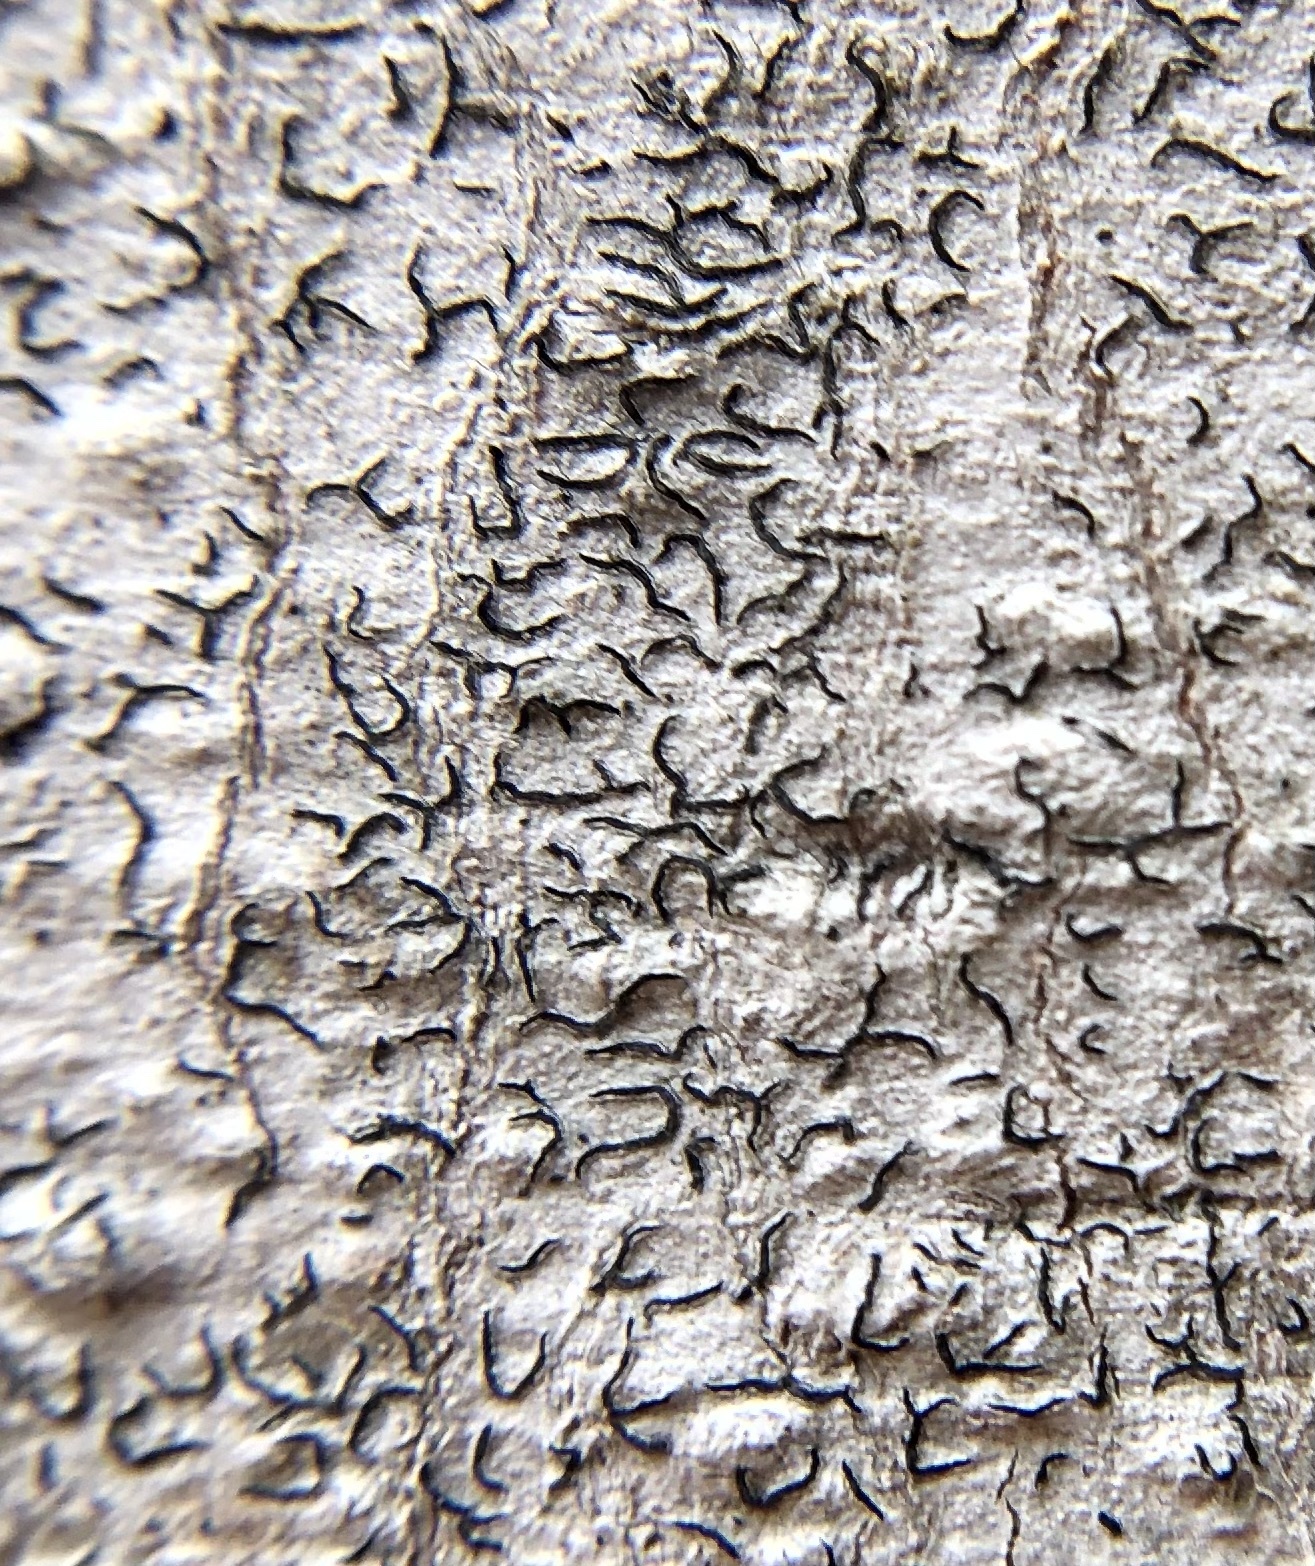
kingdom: Fungi
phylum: Ascomycota
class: Lecanoromycetes
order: Ostropales
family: Graphidaceae
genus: Graphis
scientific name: Graphis scripta
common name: Script lichen
